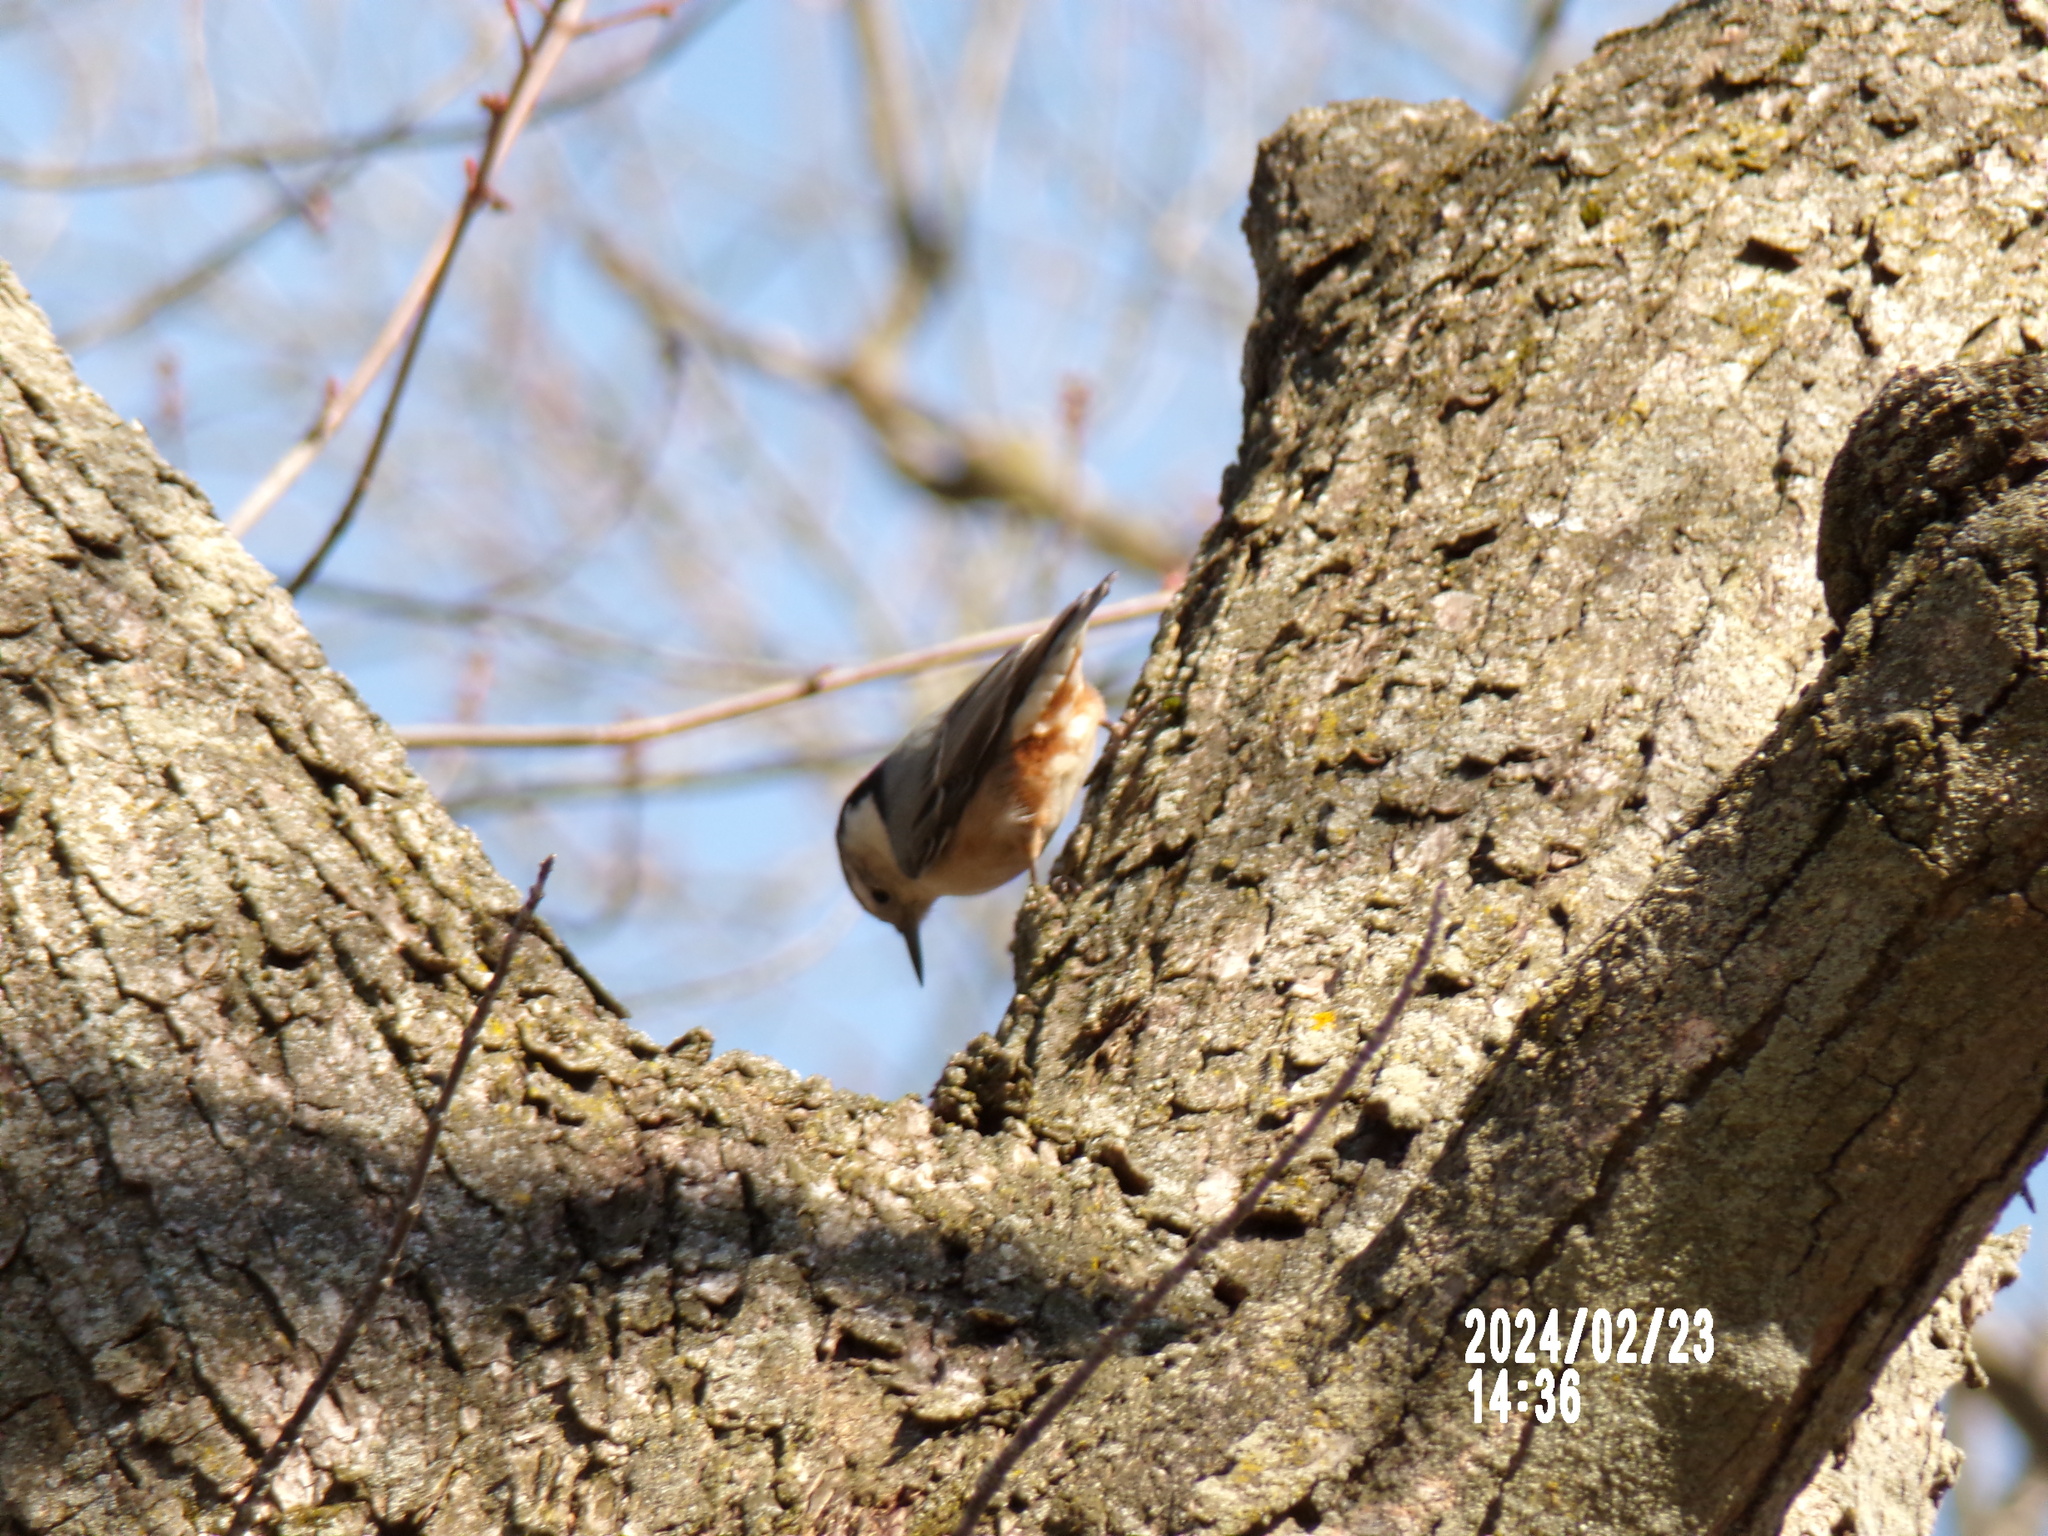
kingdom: Animalia
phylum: Chordata
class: Aves
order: Passeriformes
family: Sittidae
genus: Sitta
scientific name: Sitta carolinensis
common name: White-breasted nuthatch
